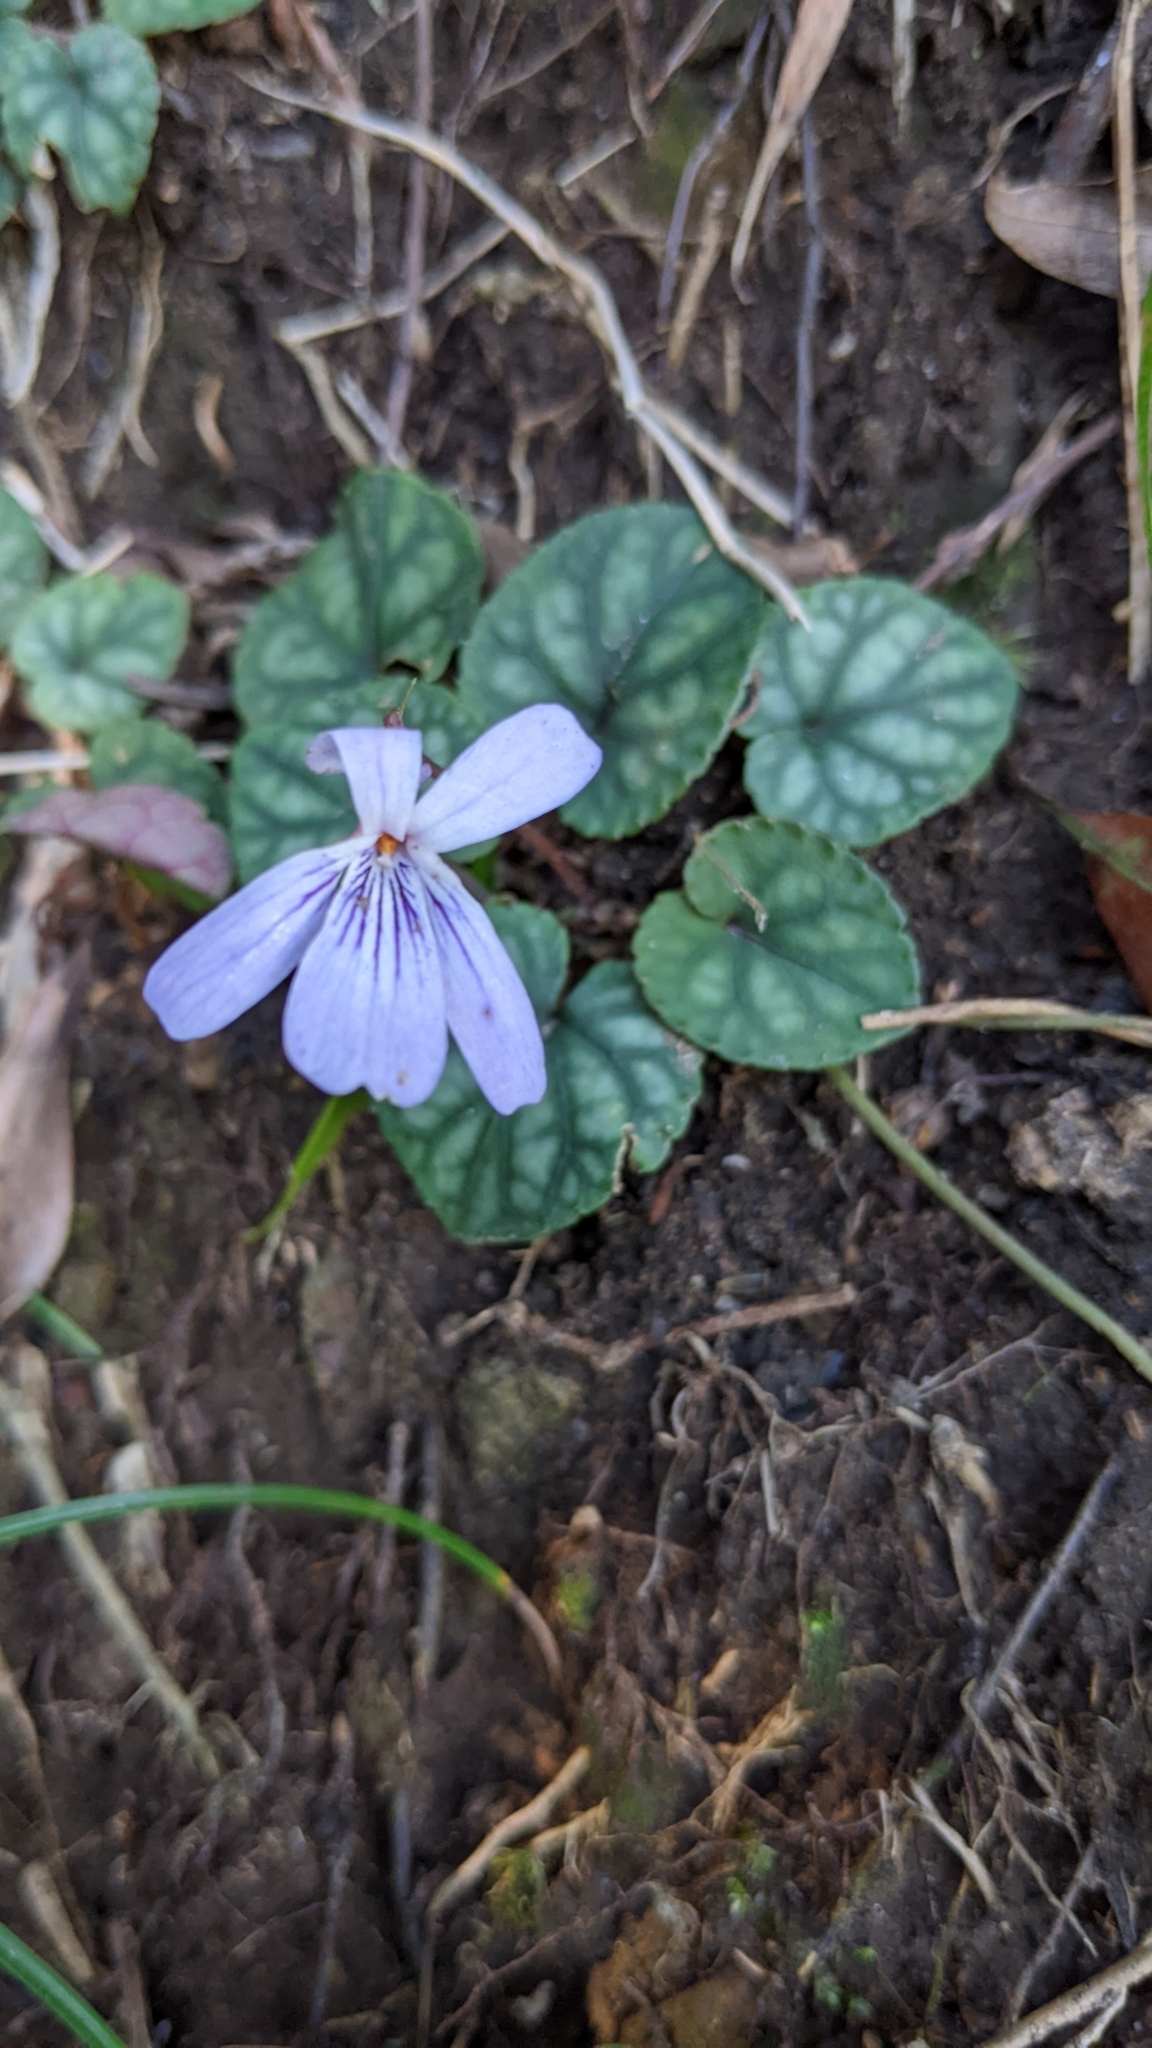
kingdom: Plantae
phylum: Tracheophyta
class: Magnoliopsida
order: Malpighiales
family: Violaceae
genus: Viola
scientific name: Viola formosana
